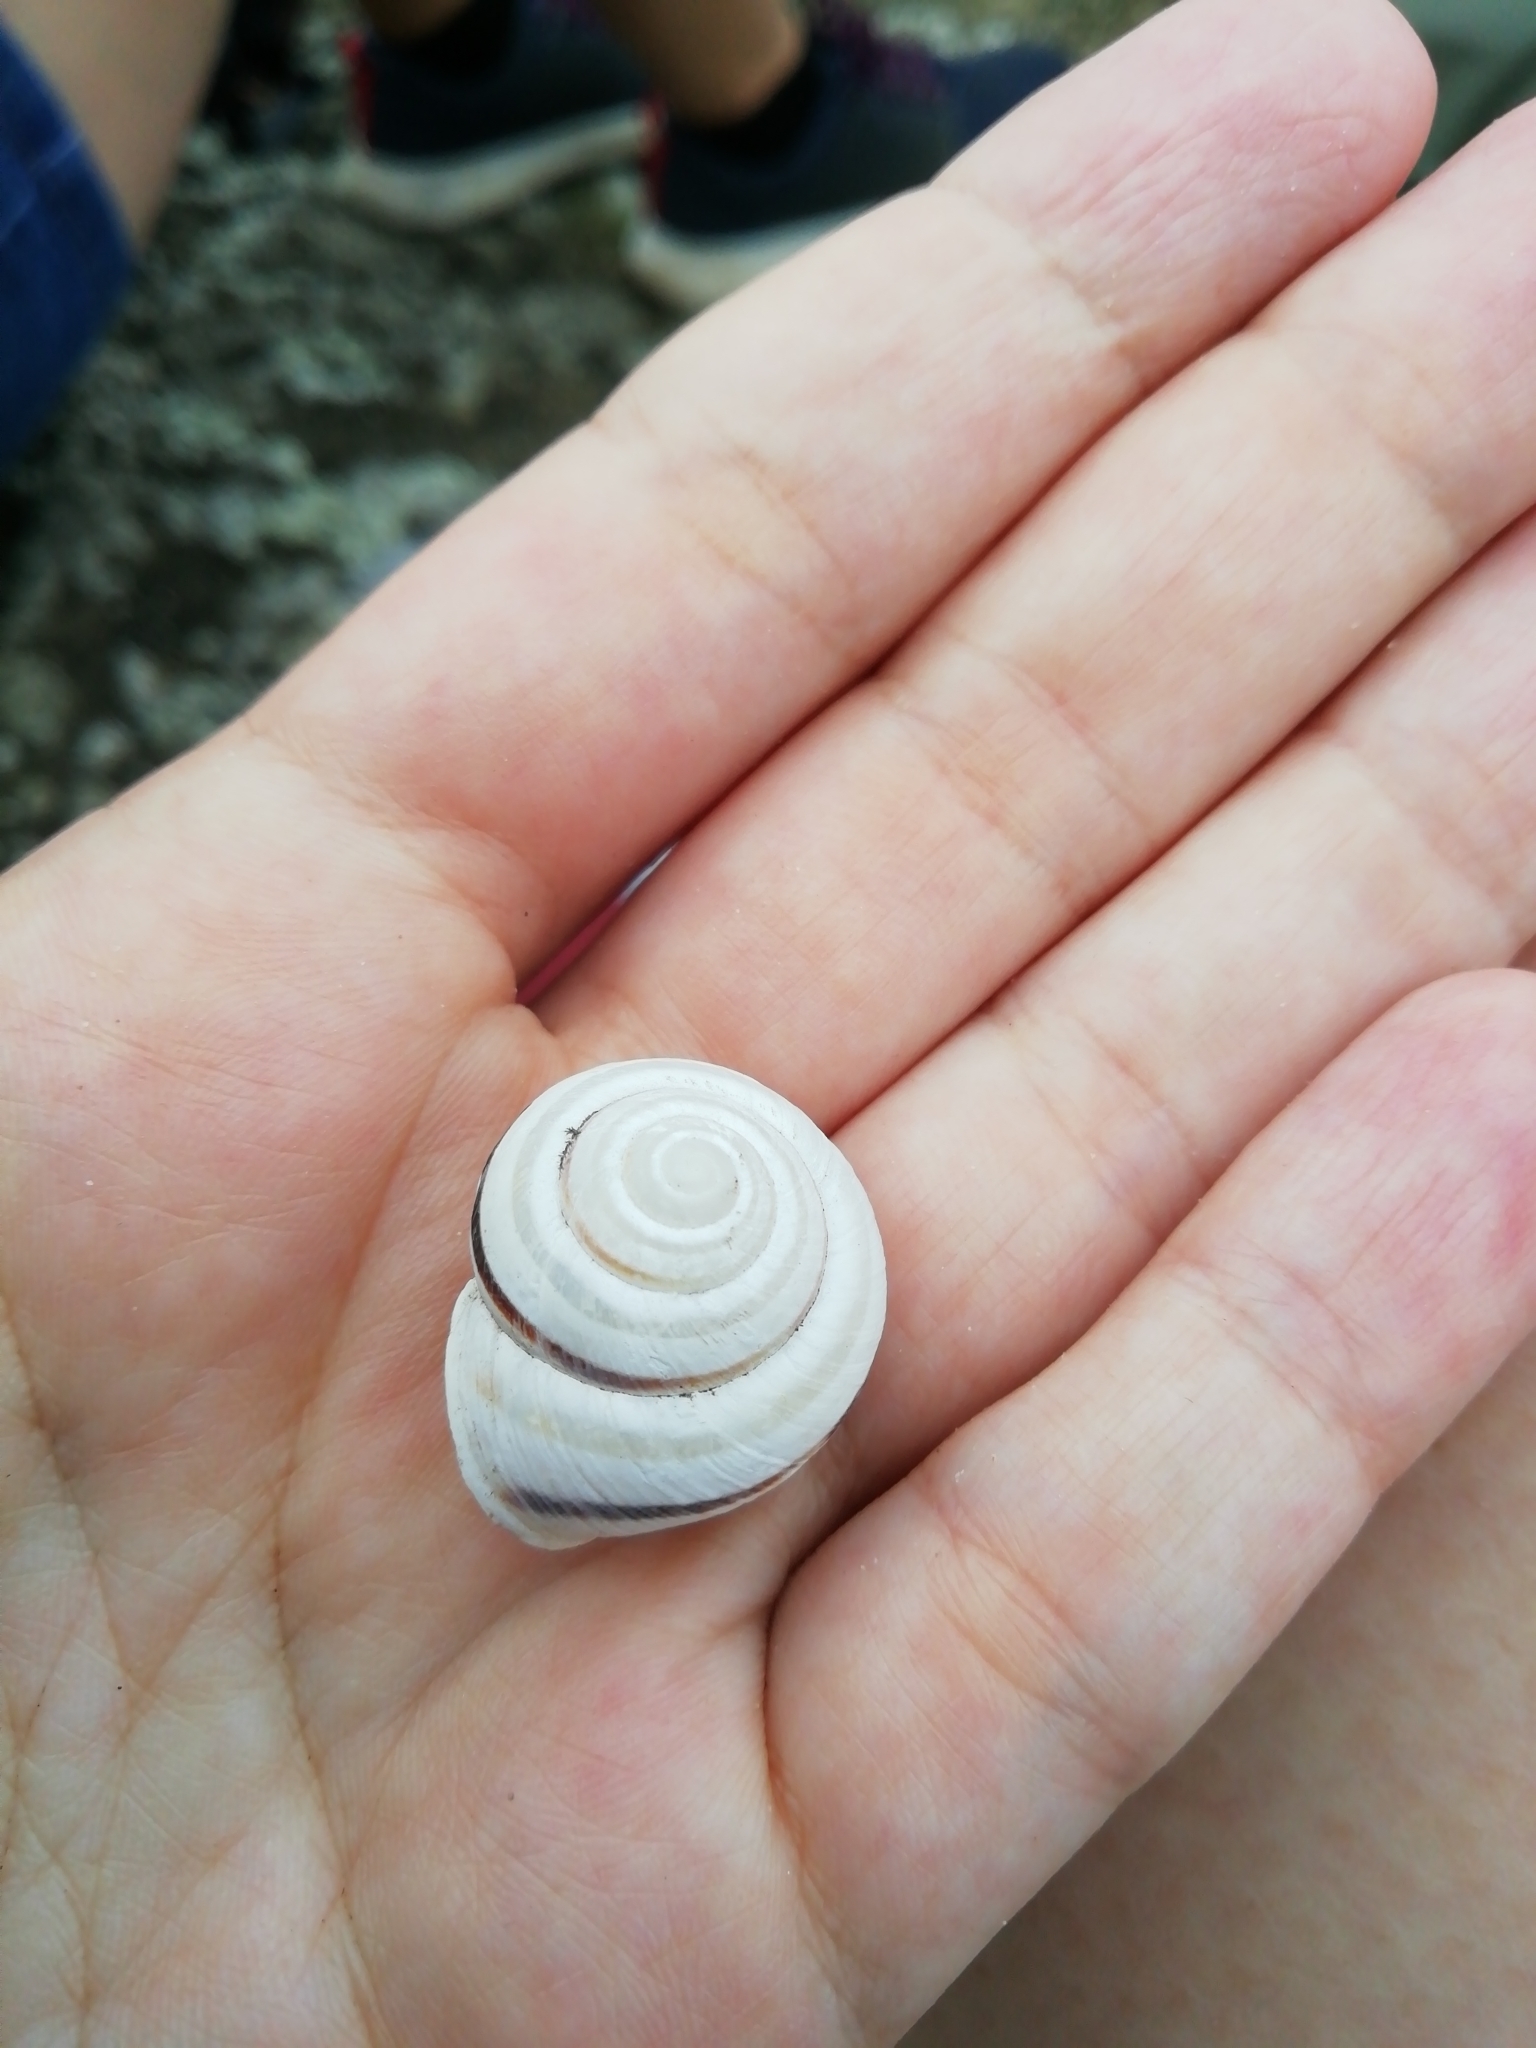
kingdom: Animalia
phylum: Mollusca
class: Gastropoda
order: Stylommatophora
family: Helicidae
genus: Caucasotachea
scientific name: Caucasotachea vindobonensis
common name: European helicid land snail
